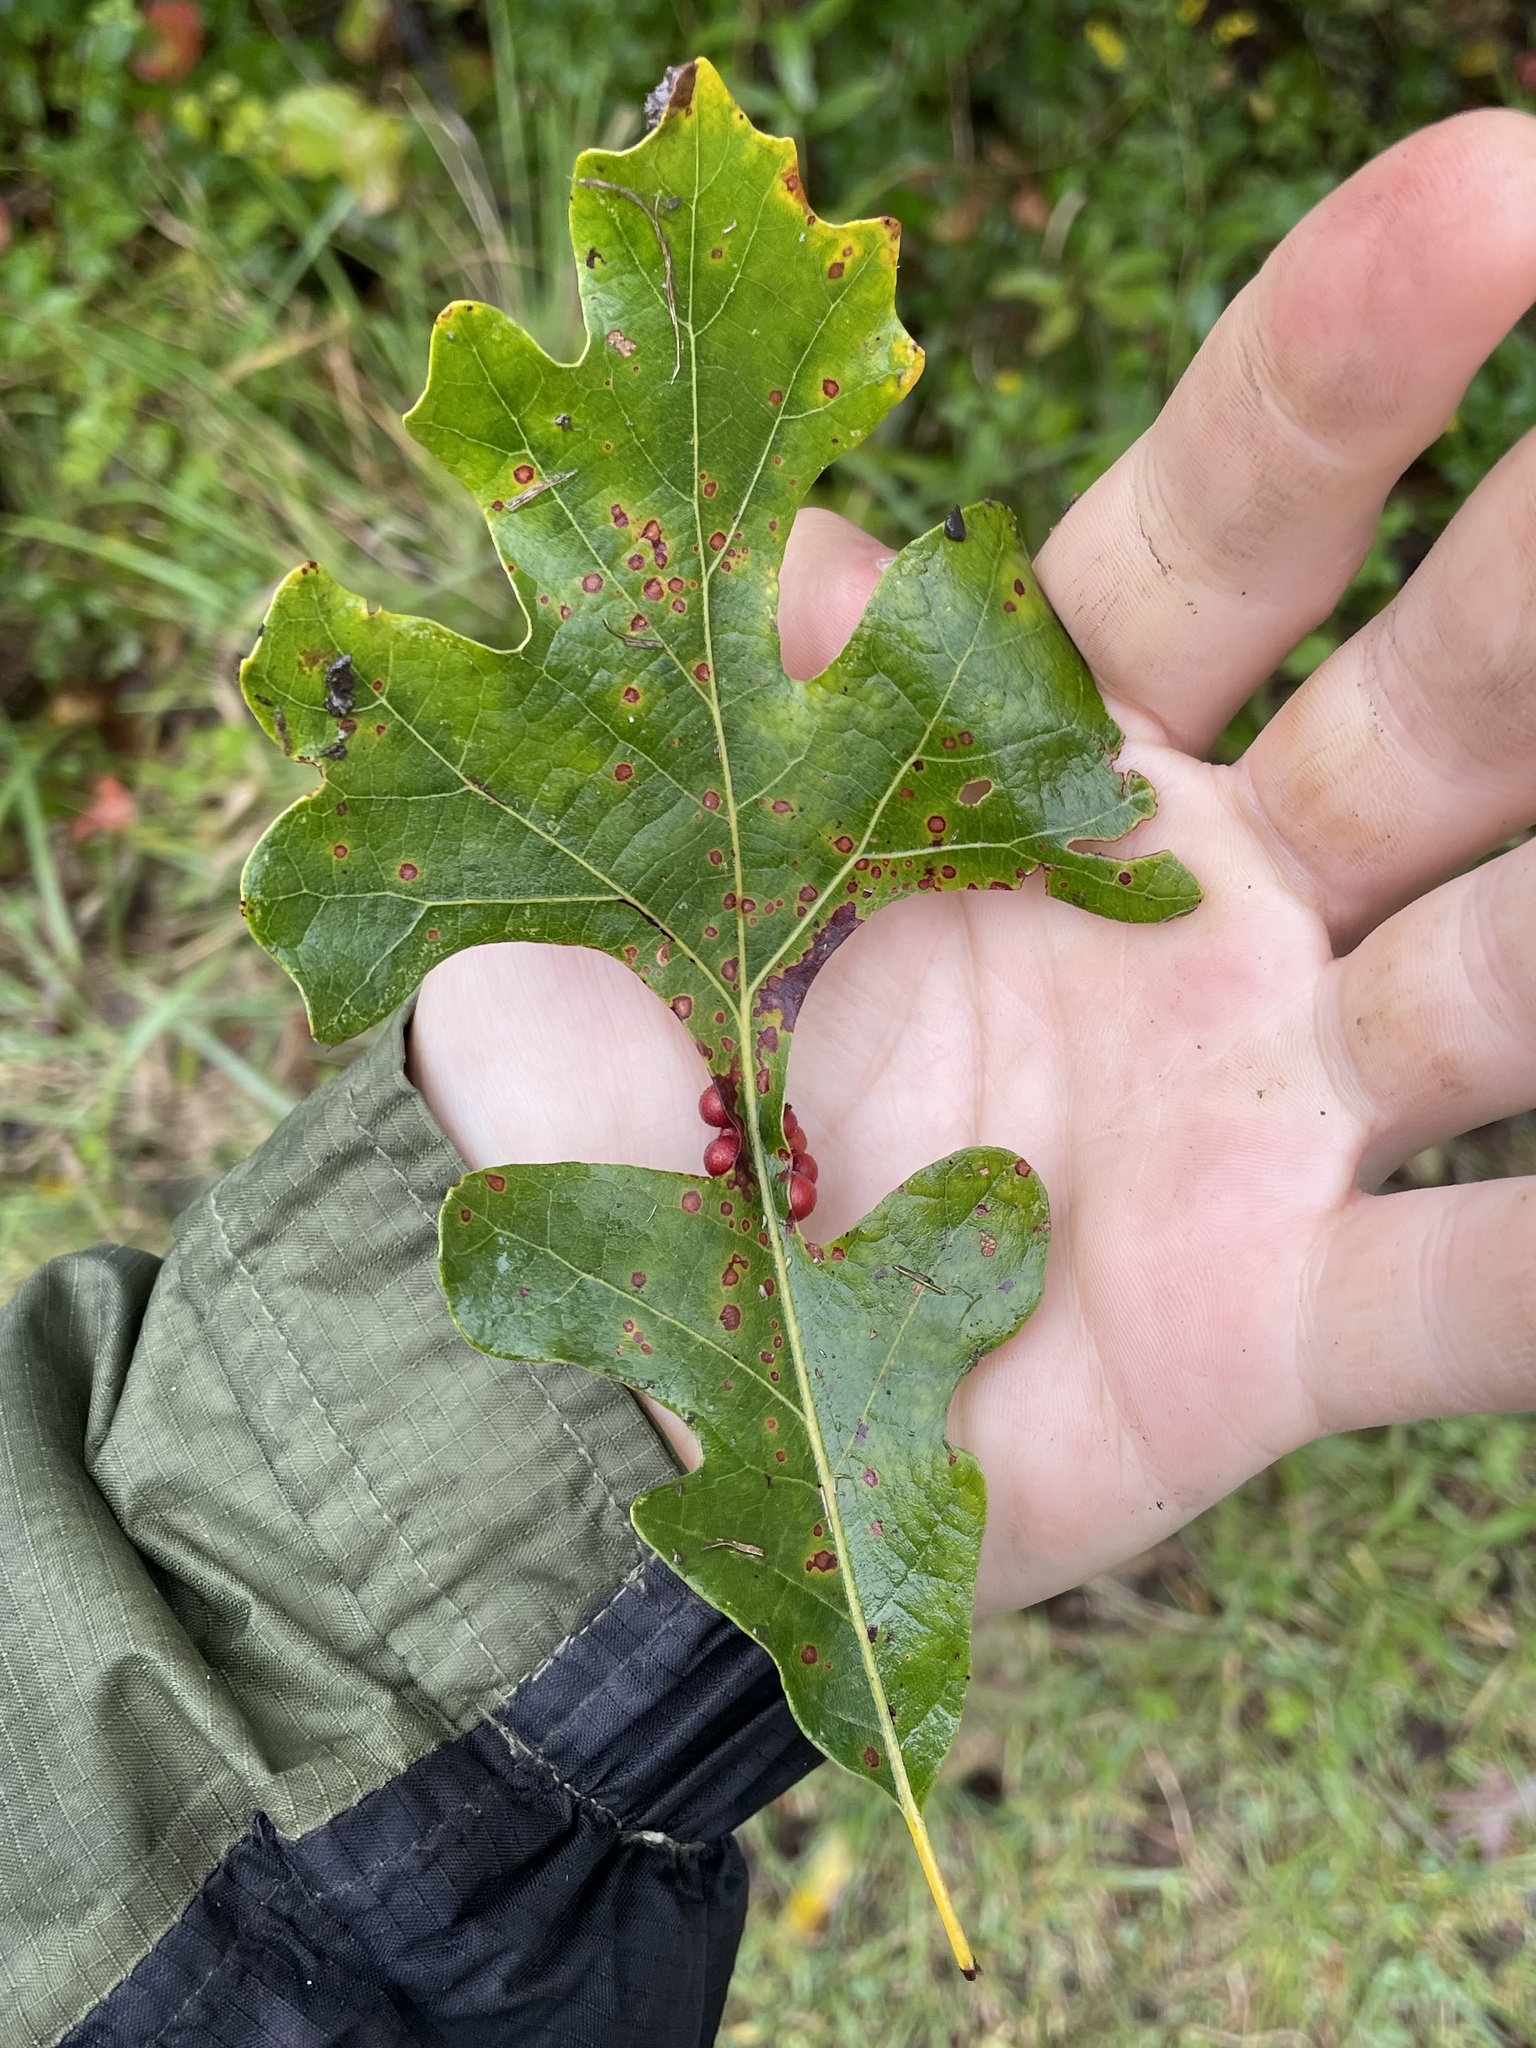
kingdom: Animalia
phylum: Arthropoda
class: Insecta
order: Hymenoptera
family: Cynipidae
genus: Andricus
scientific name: Andricus
